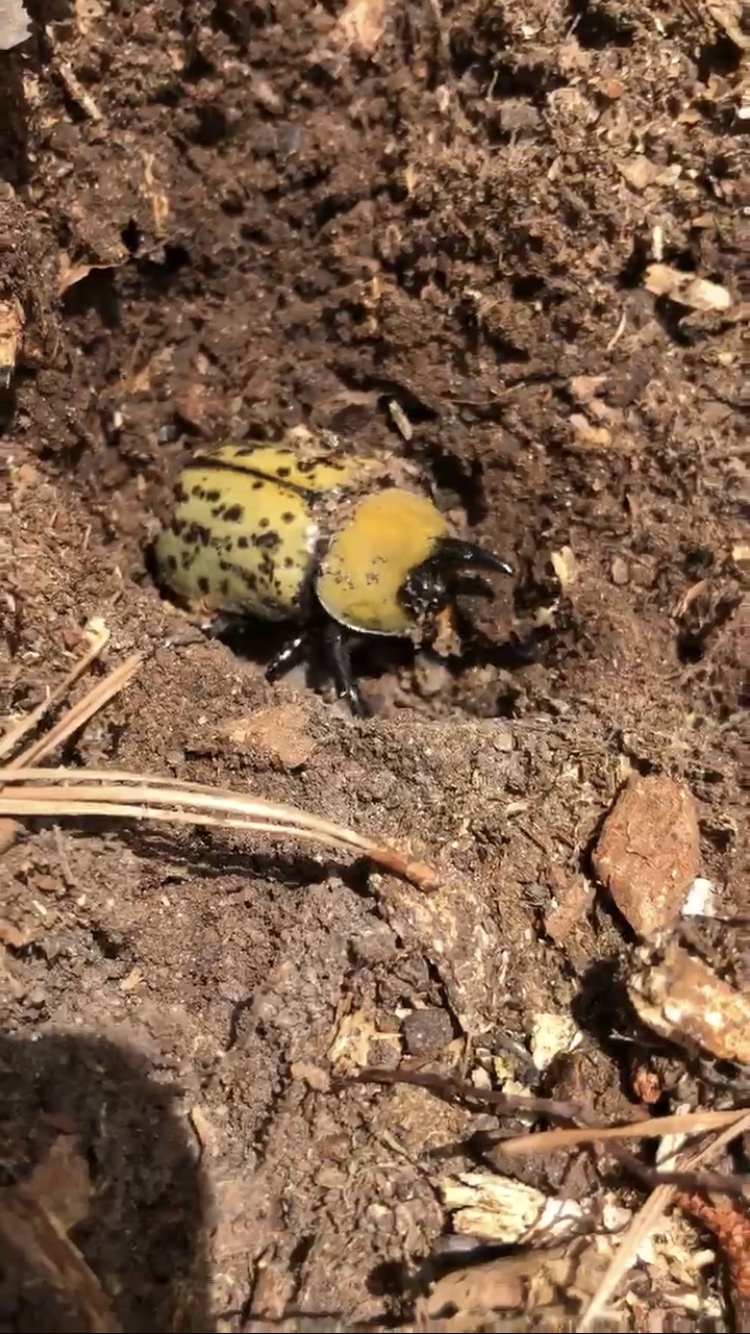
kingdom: Animalia
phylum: Arthropoda
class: Insecta
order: Coleoptera
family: Scarabaeidae
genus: Dynastes
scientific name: Dynastes tityus
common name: Eastern hercules beetle
